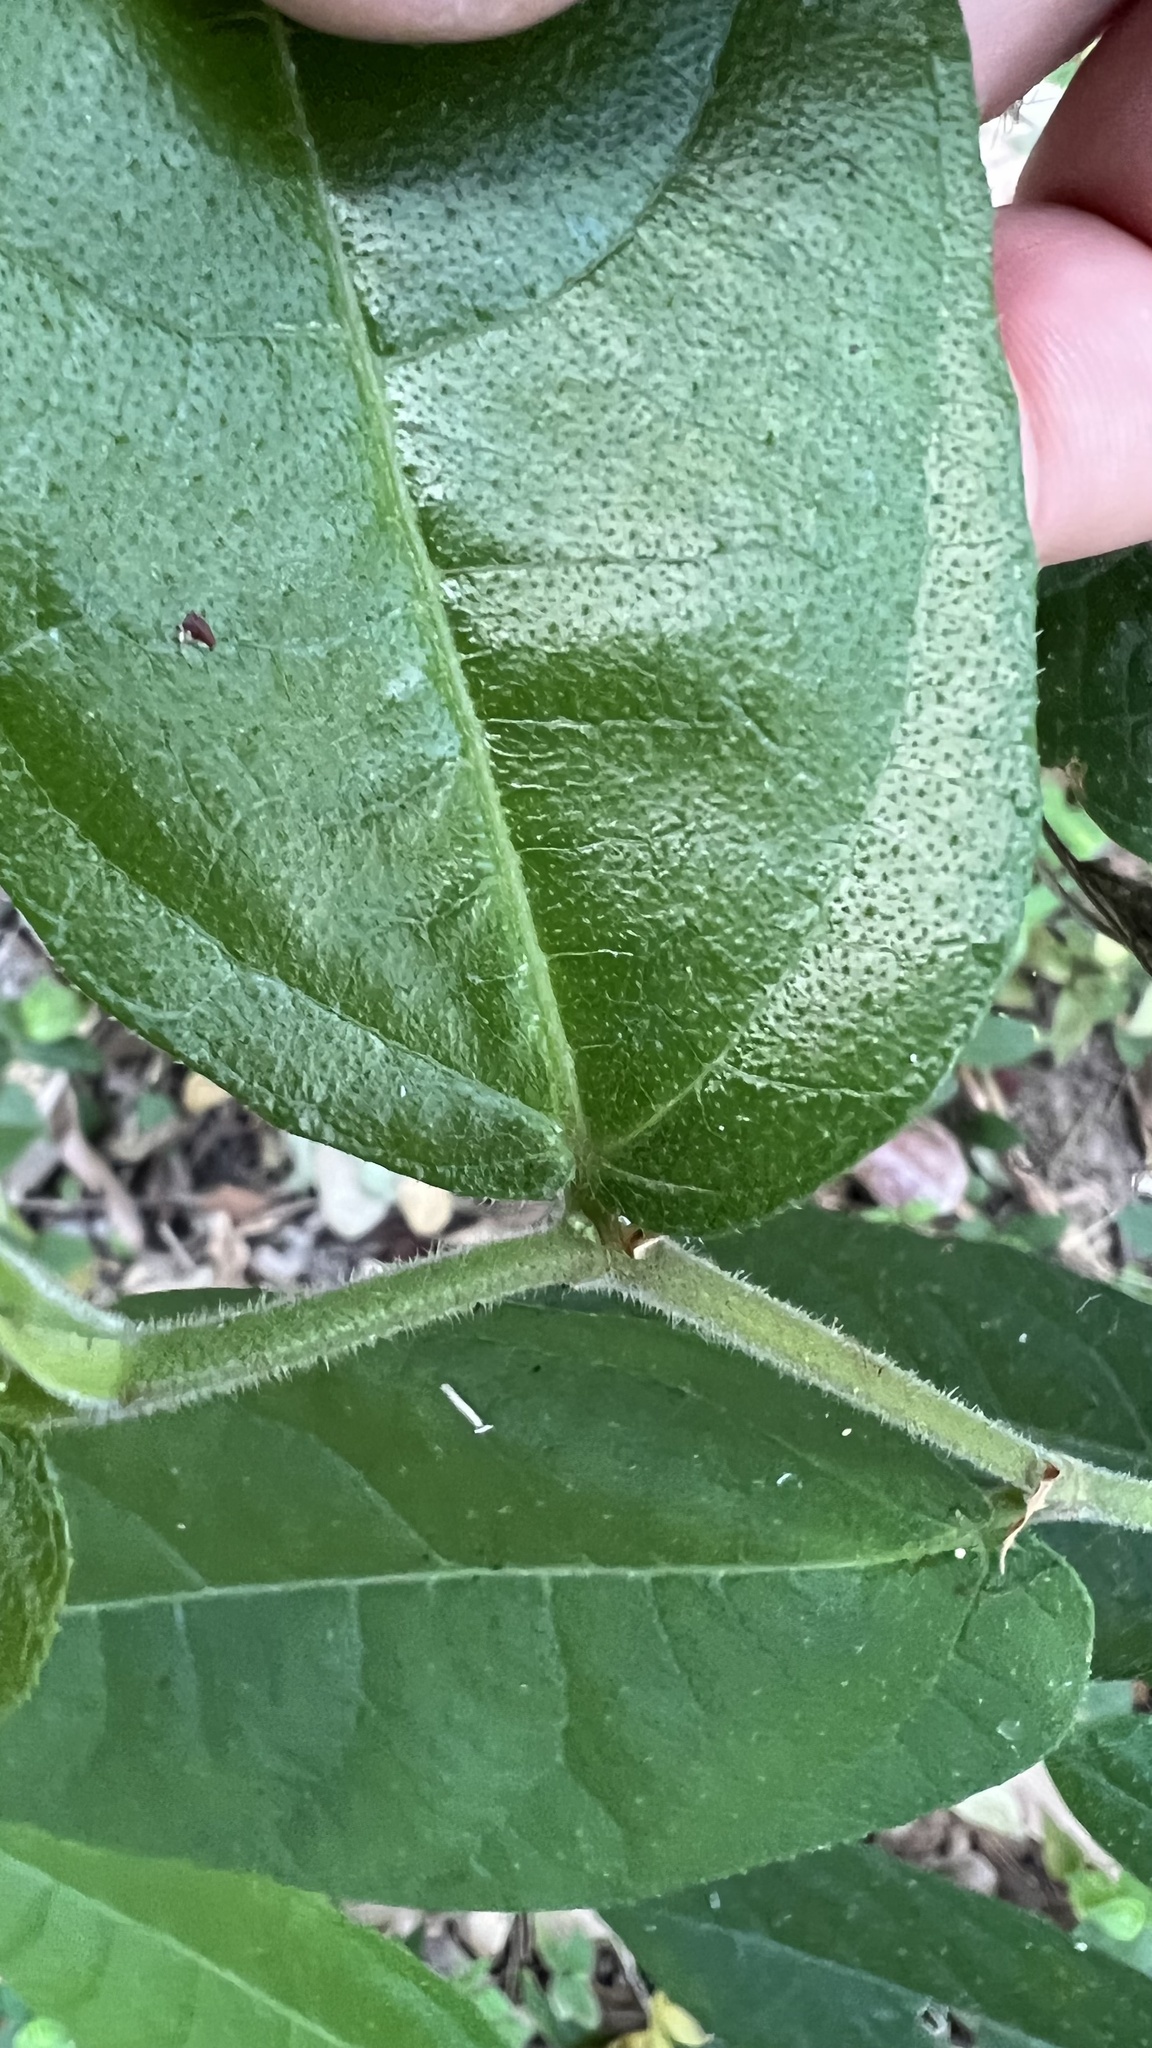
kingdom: Plantae
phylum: Tracheophyta
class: Magnoliopsida
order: Rosales
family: Moraceae
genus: Ficus
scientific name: Ficus coronata
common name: Creek sandpaper fig
